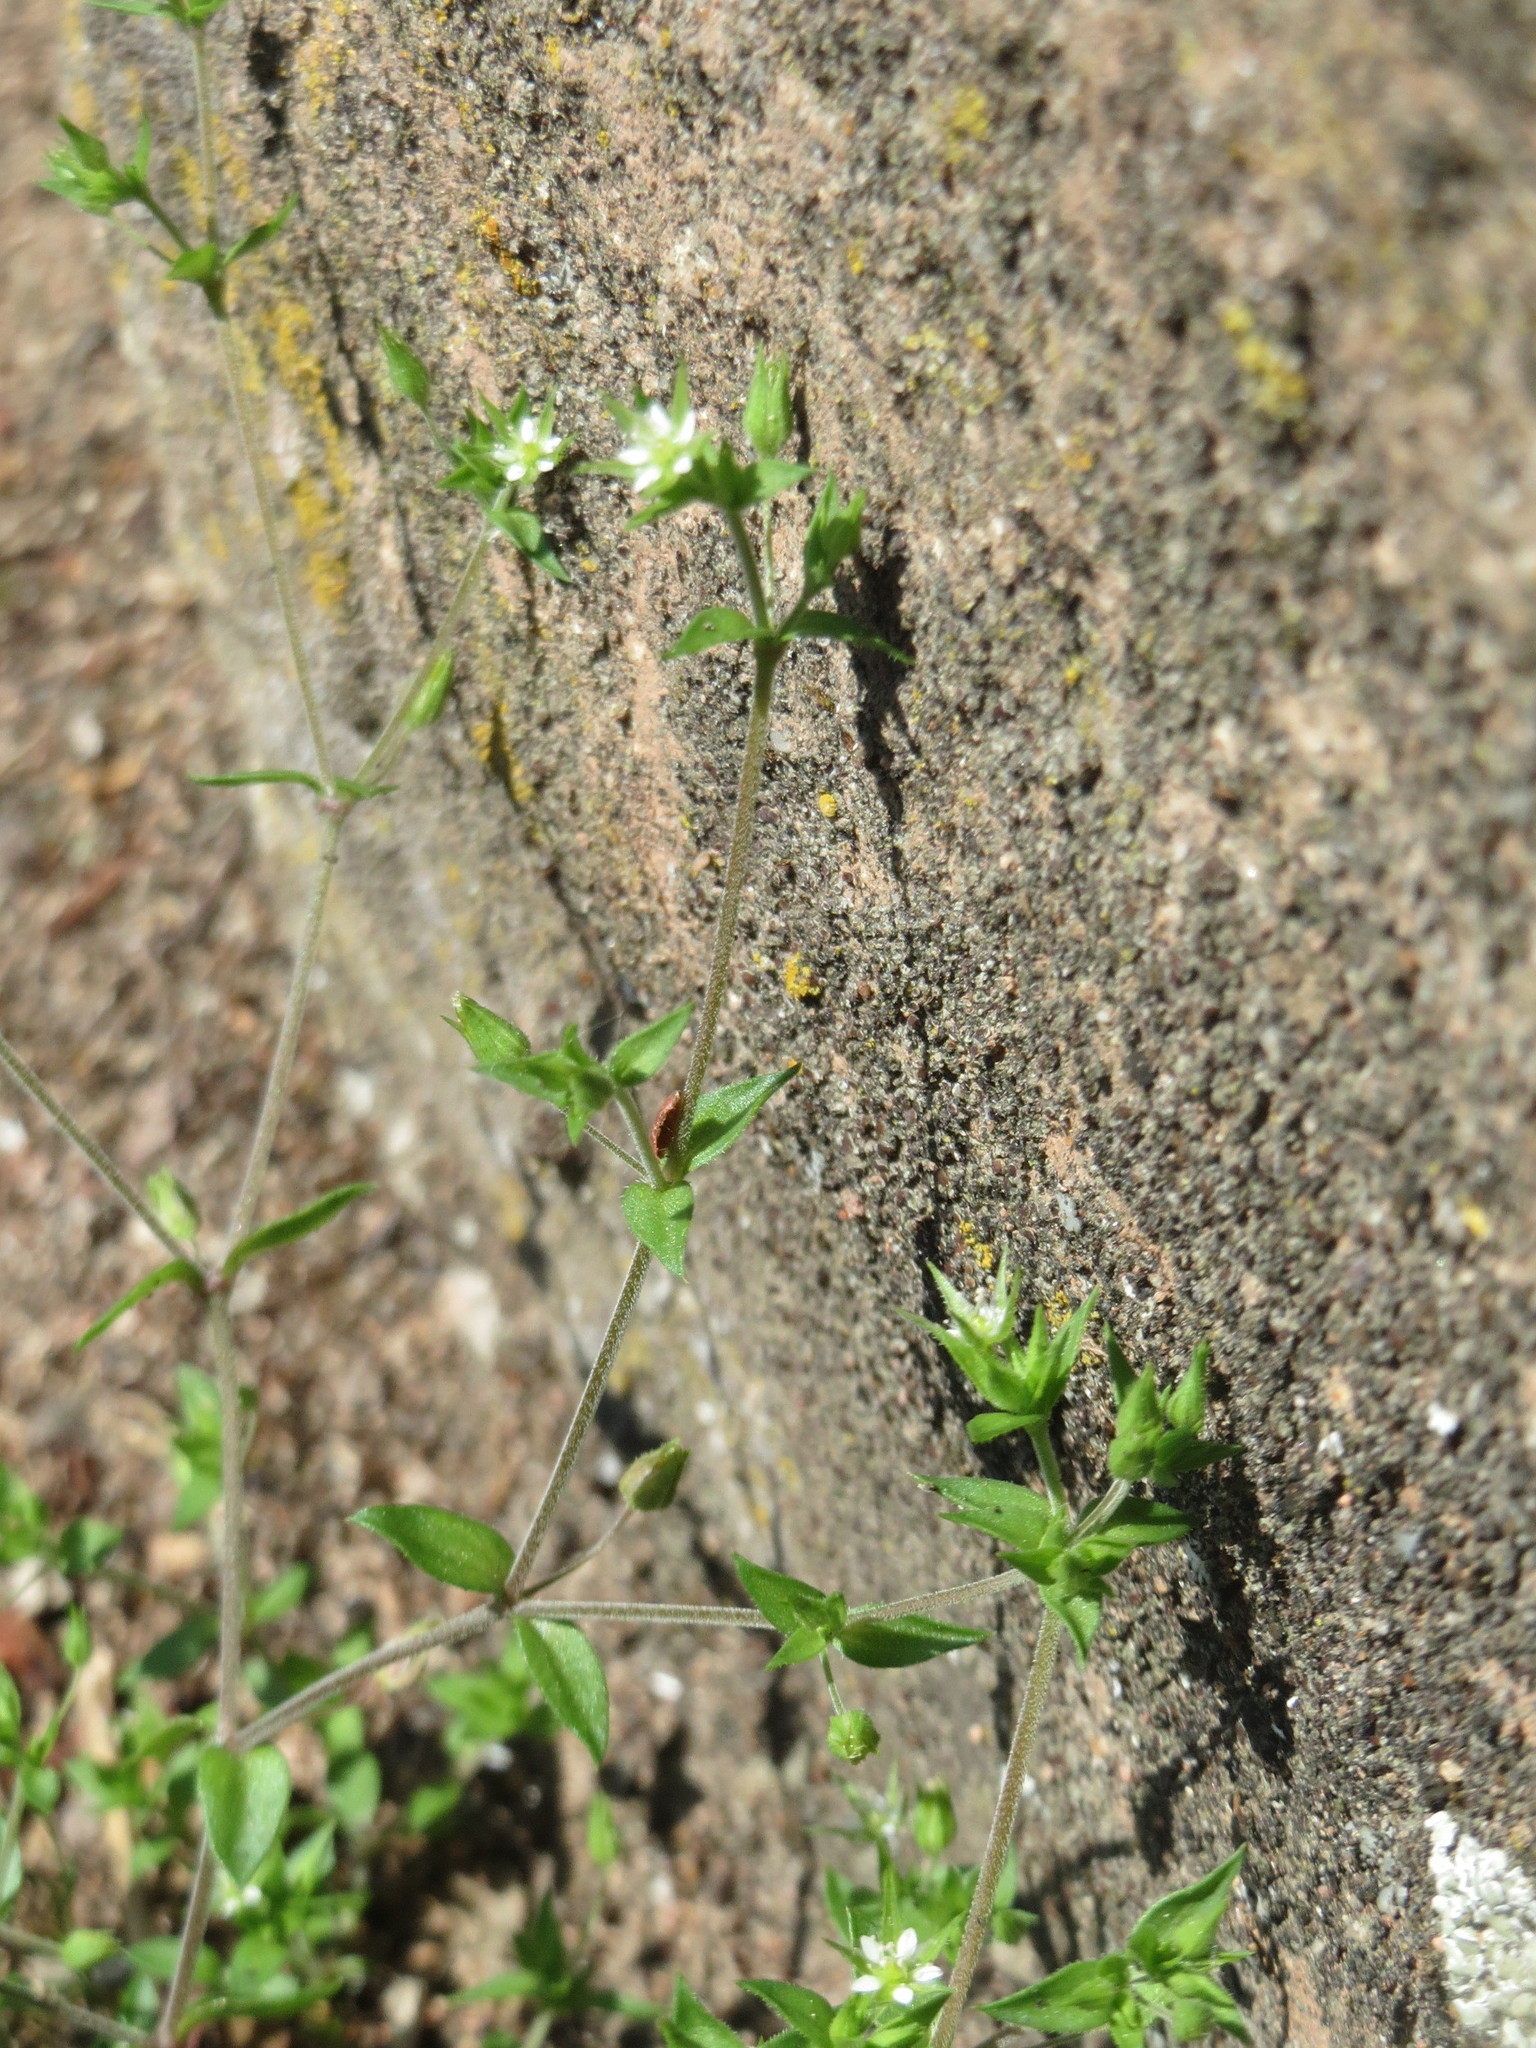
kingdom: Plantae
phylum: Tracheophyta
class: Magnoliopsida
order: Caryophyllales
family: Caryophyllaceae
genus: Arenaria
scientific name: Arenaria serpyllifolia
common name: Thyme-leaved sandwort
